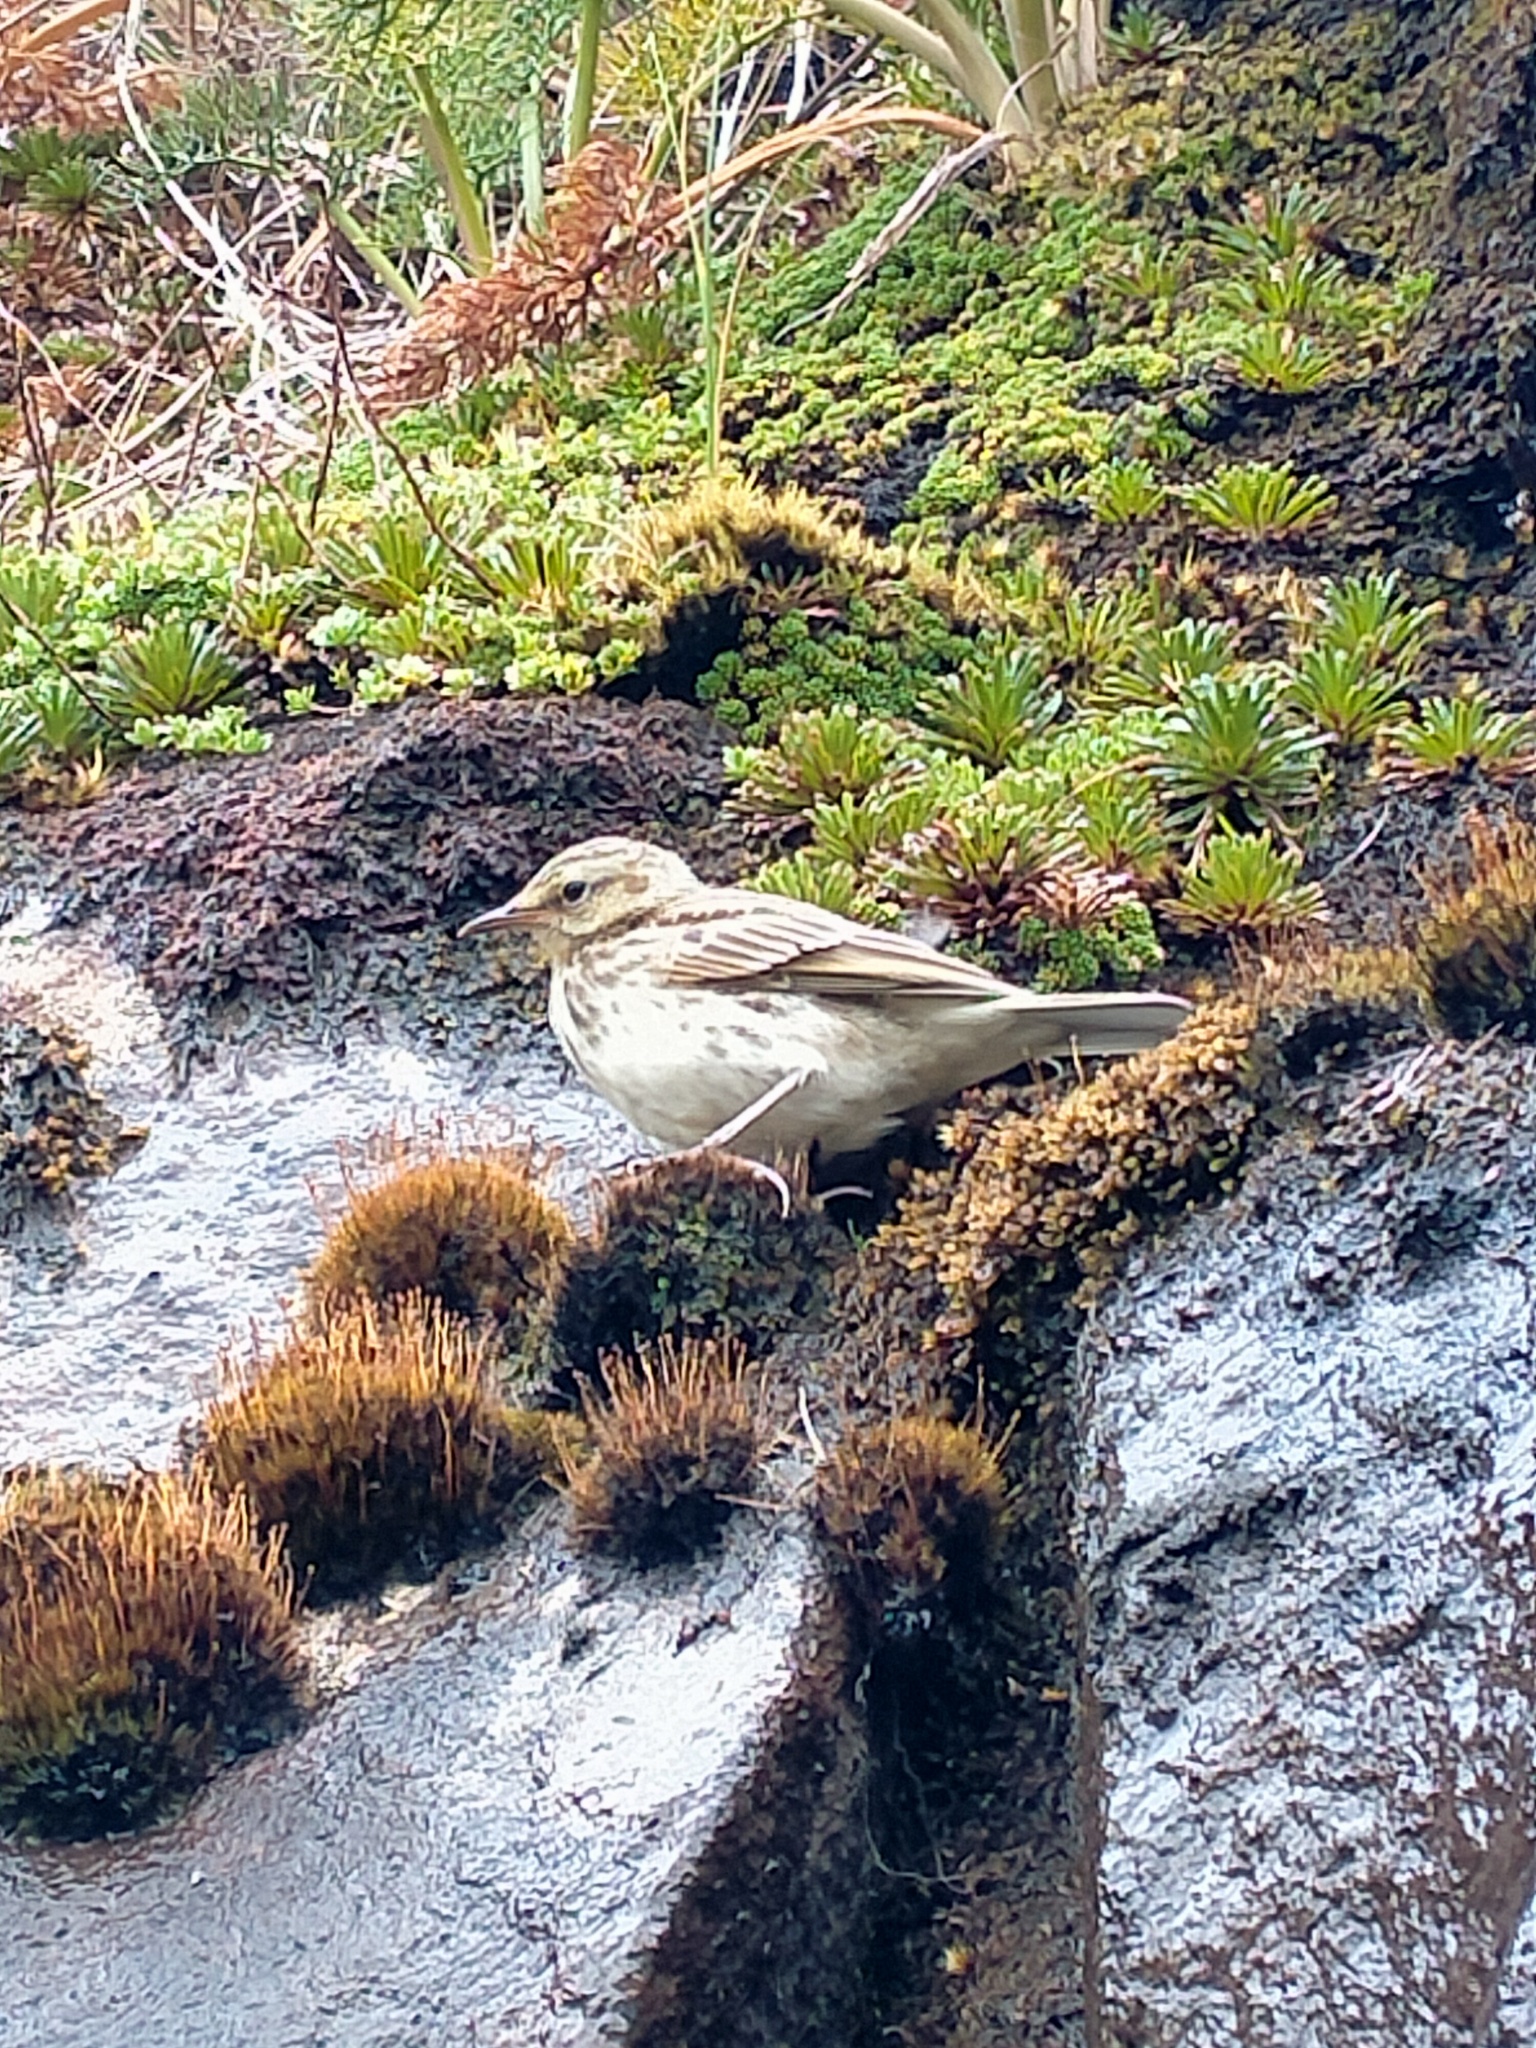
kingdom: Animalia
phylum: Chordata
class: Aves
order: Passeriformes
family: Motacillidae
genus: Anthus
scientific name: Anthus novaeseelandiae
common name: New zealand pipit
